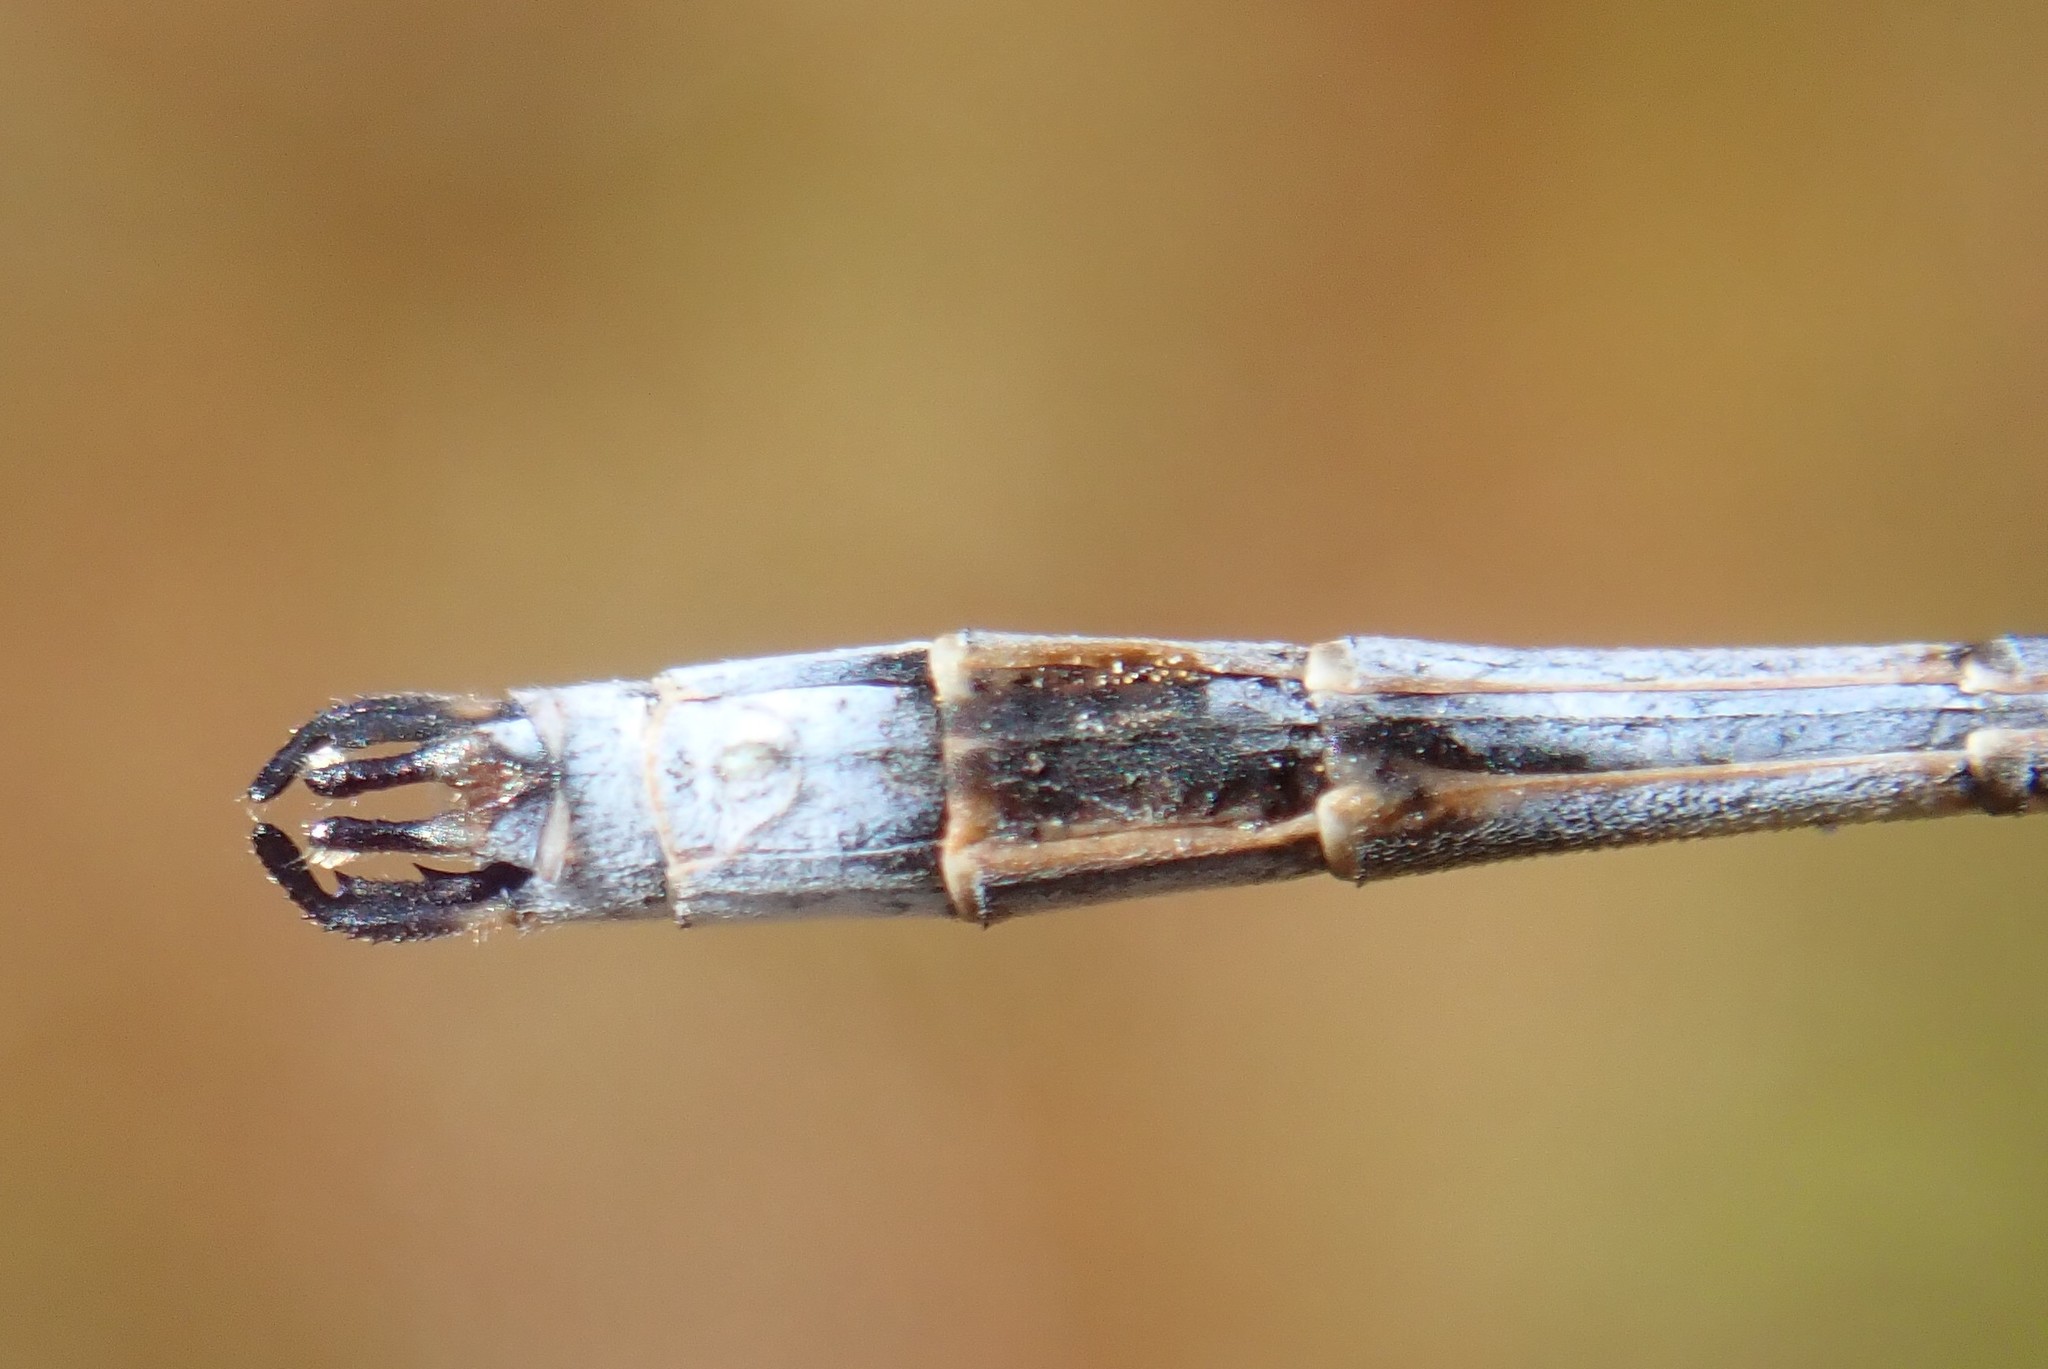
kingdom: Animalia
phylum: Arthropoda
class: Insecta
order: Odonata
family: Lestidae
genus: Lestes
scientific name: Lestes disjunctus
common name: Northern spreadwing
